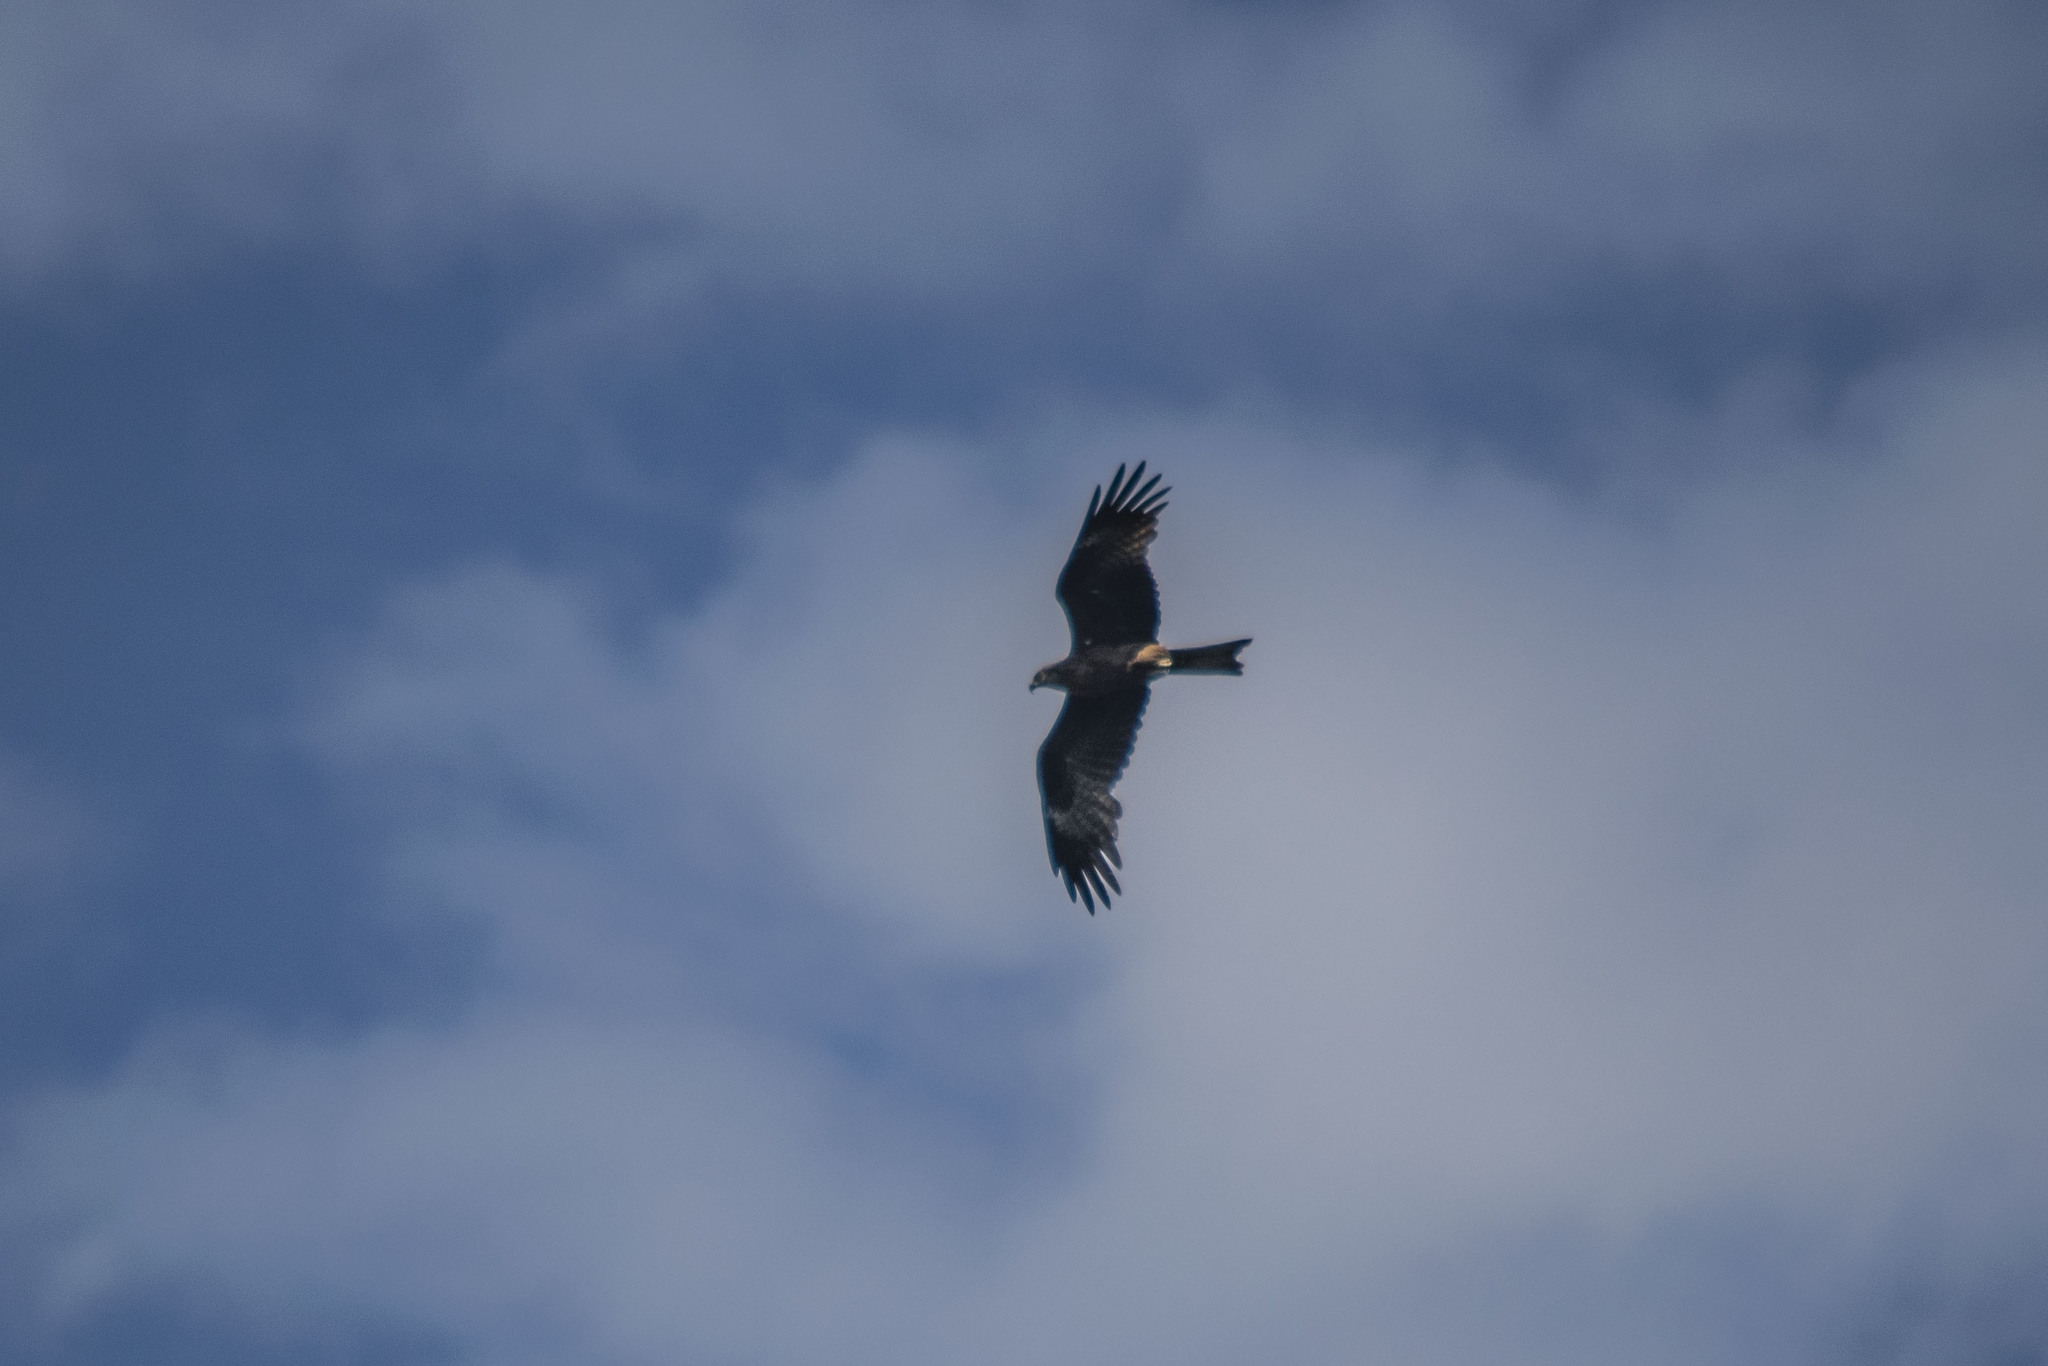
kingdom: Animalia
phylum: Chordata
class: Aves
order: Accipitriformes
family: Accipitridae
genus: Milvus
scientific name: Milvus migrans
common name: Black kite
